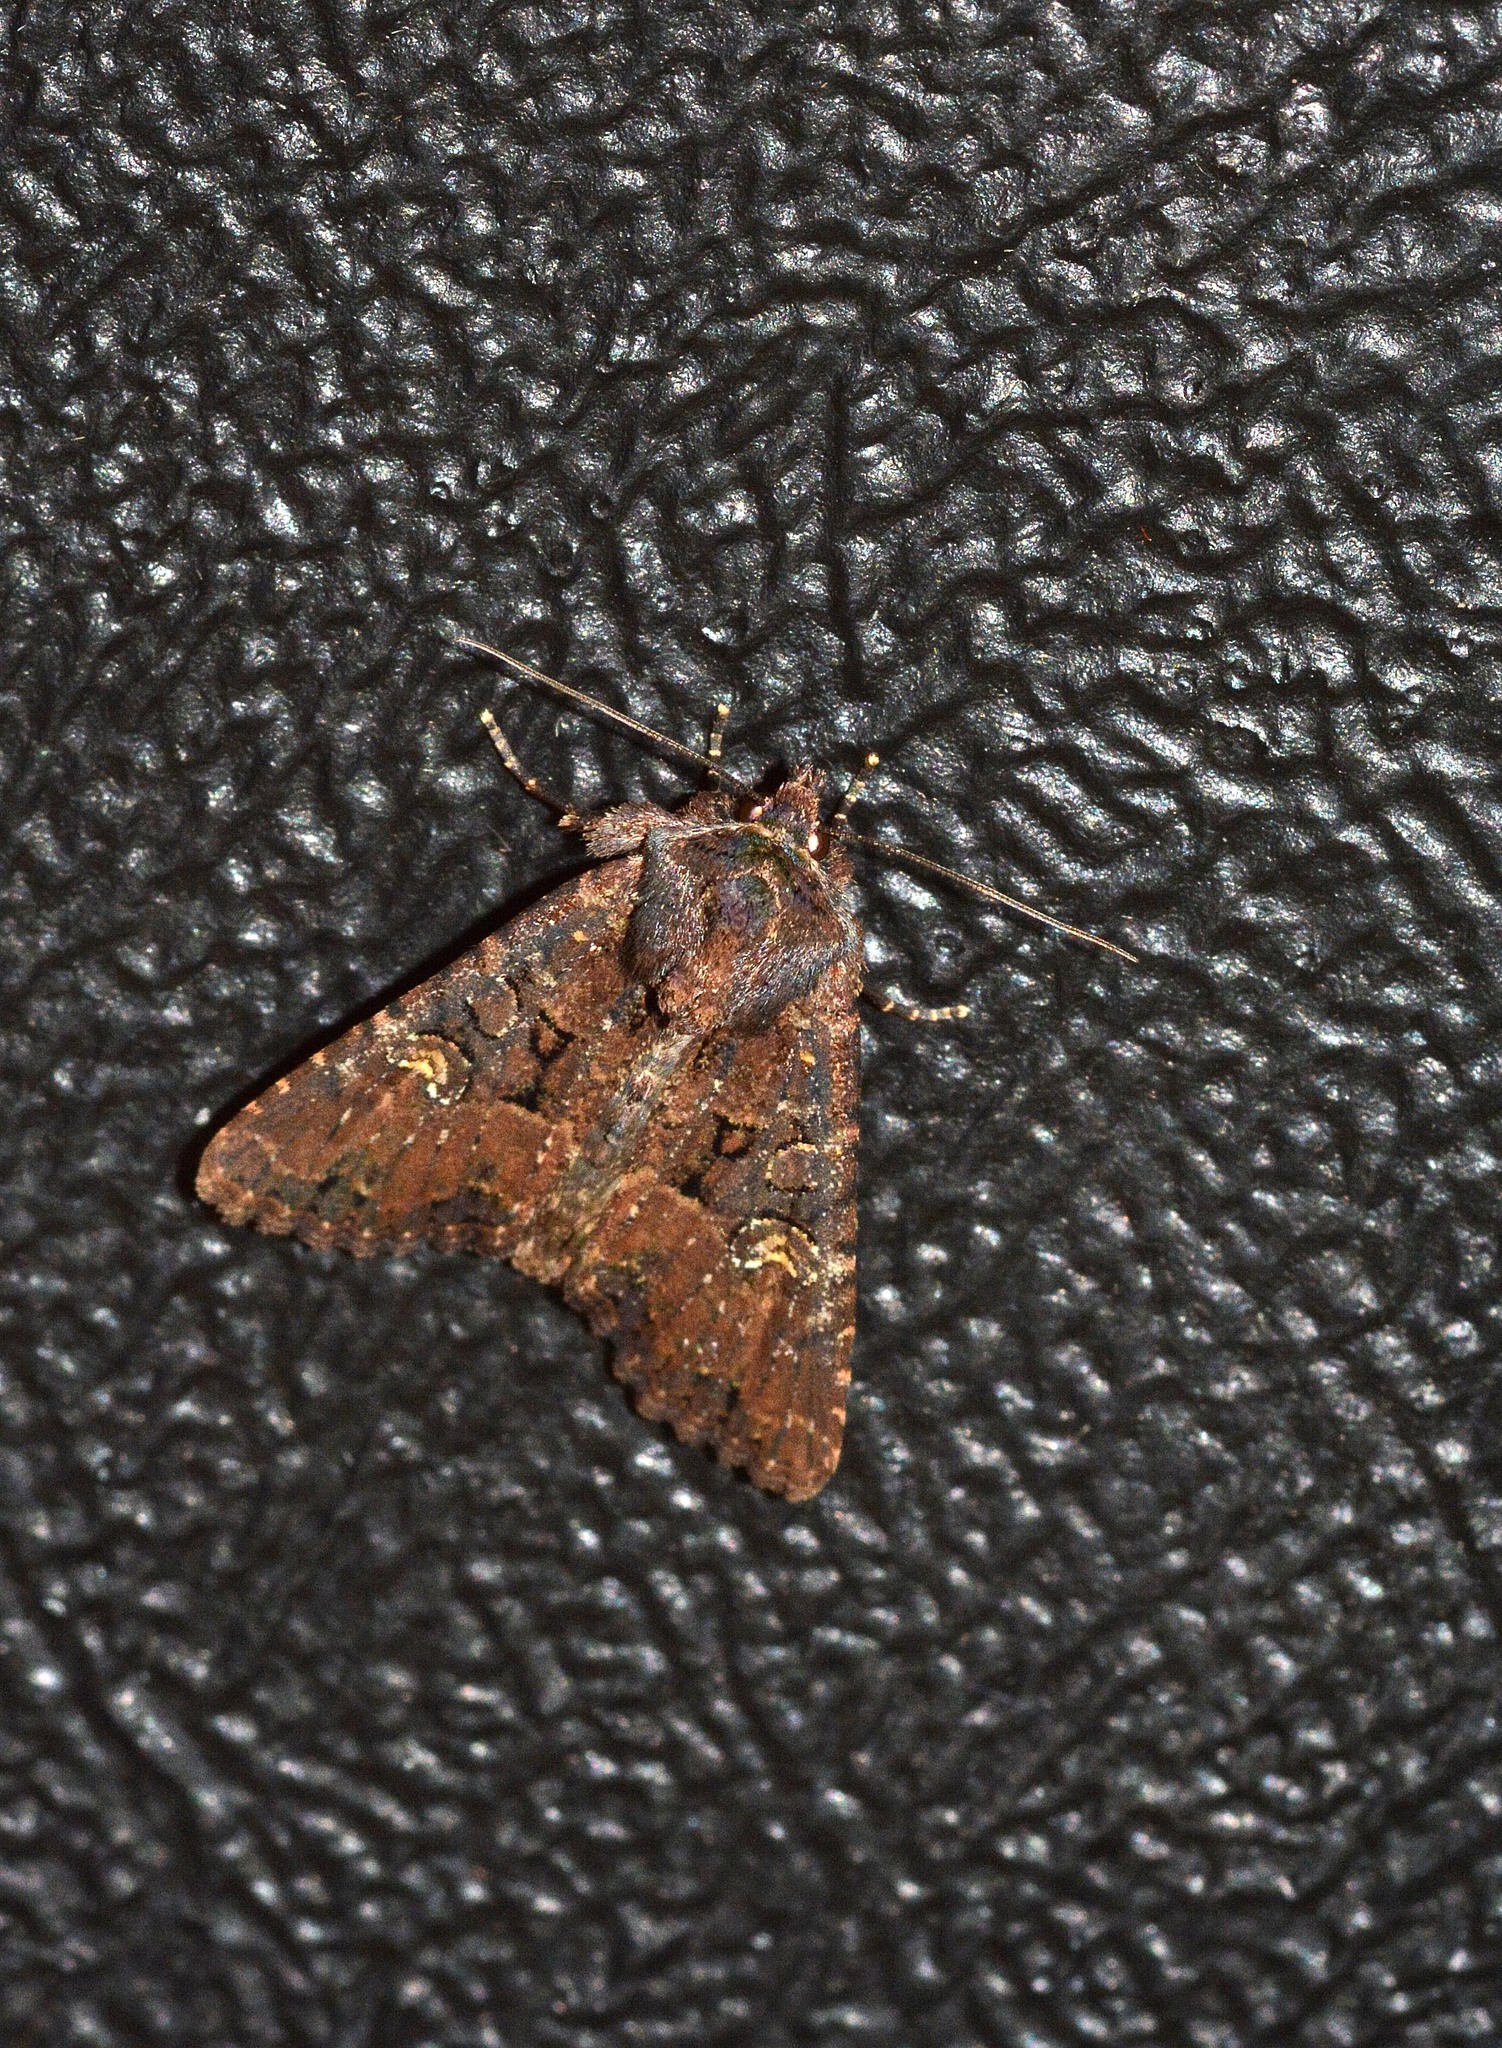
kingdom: Animalia
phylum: Arthropoda
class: Insecta
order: Lepidoptera
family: Noctuidae
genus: Mesapamea
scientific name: Mesapamea
